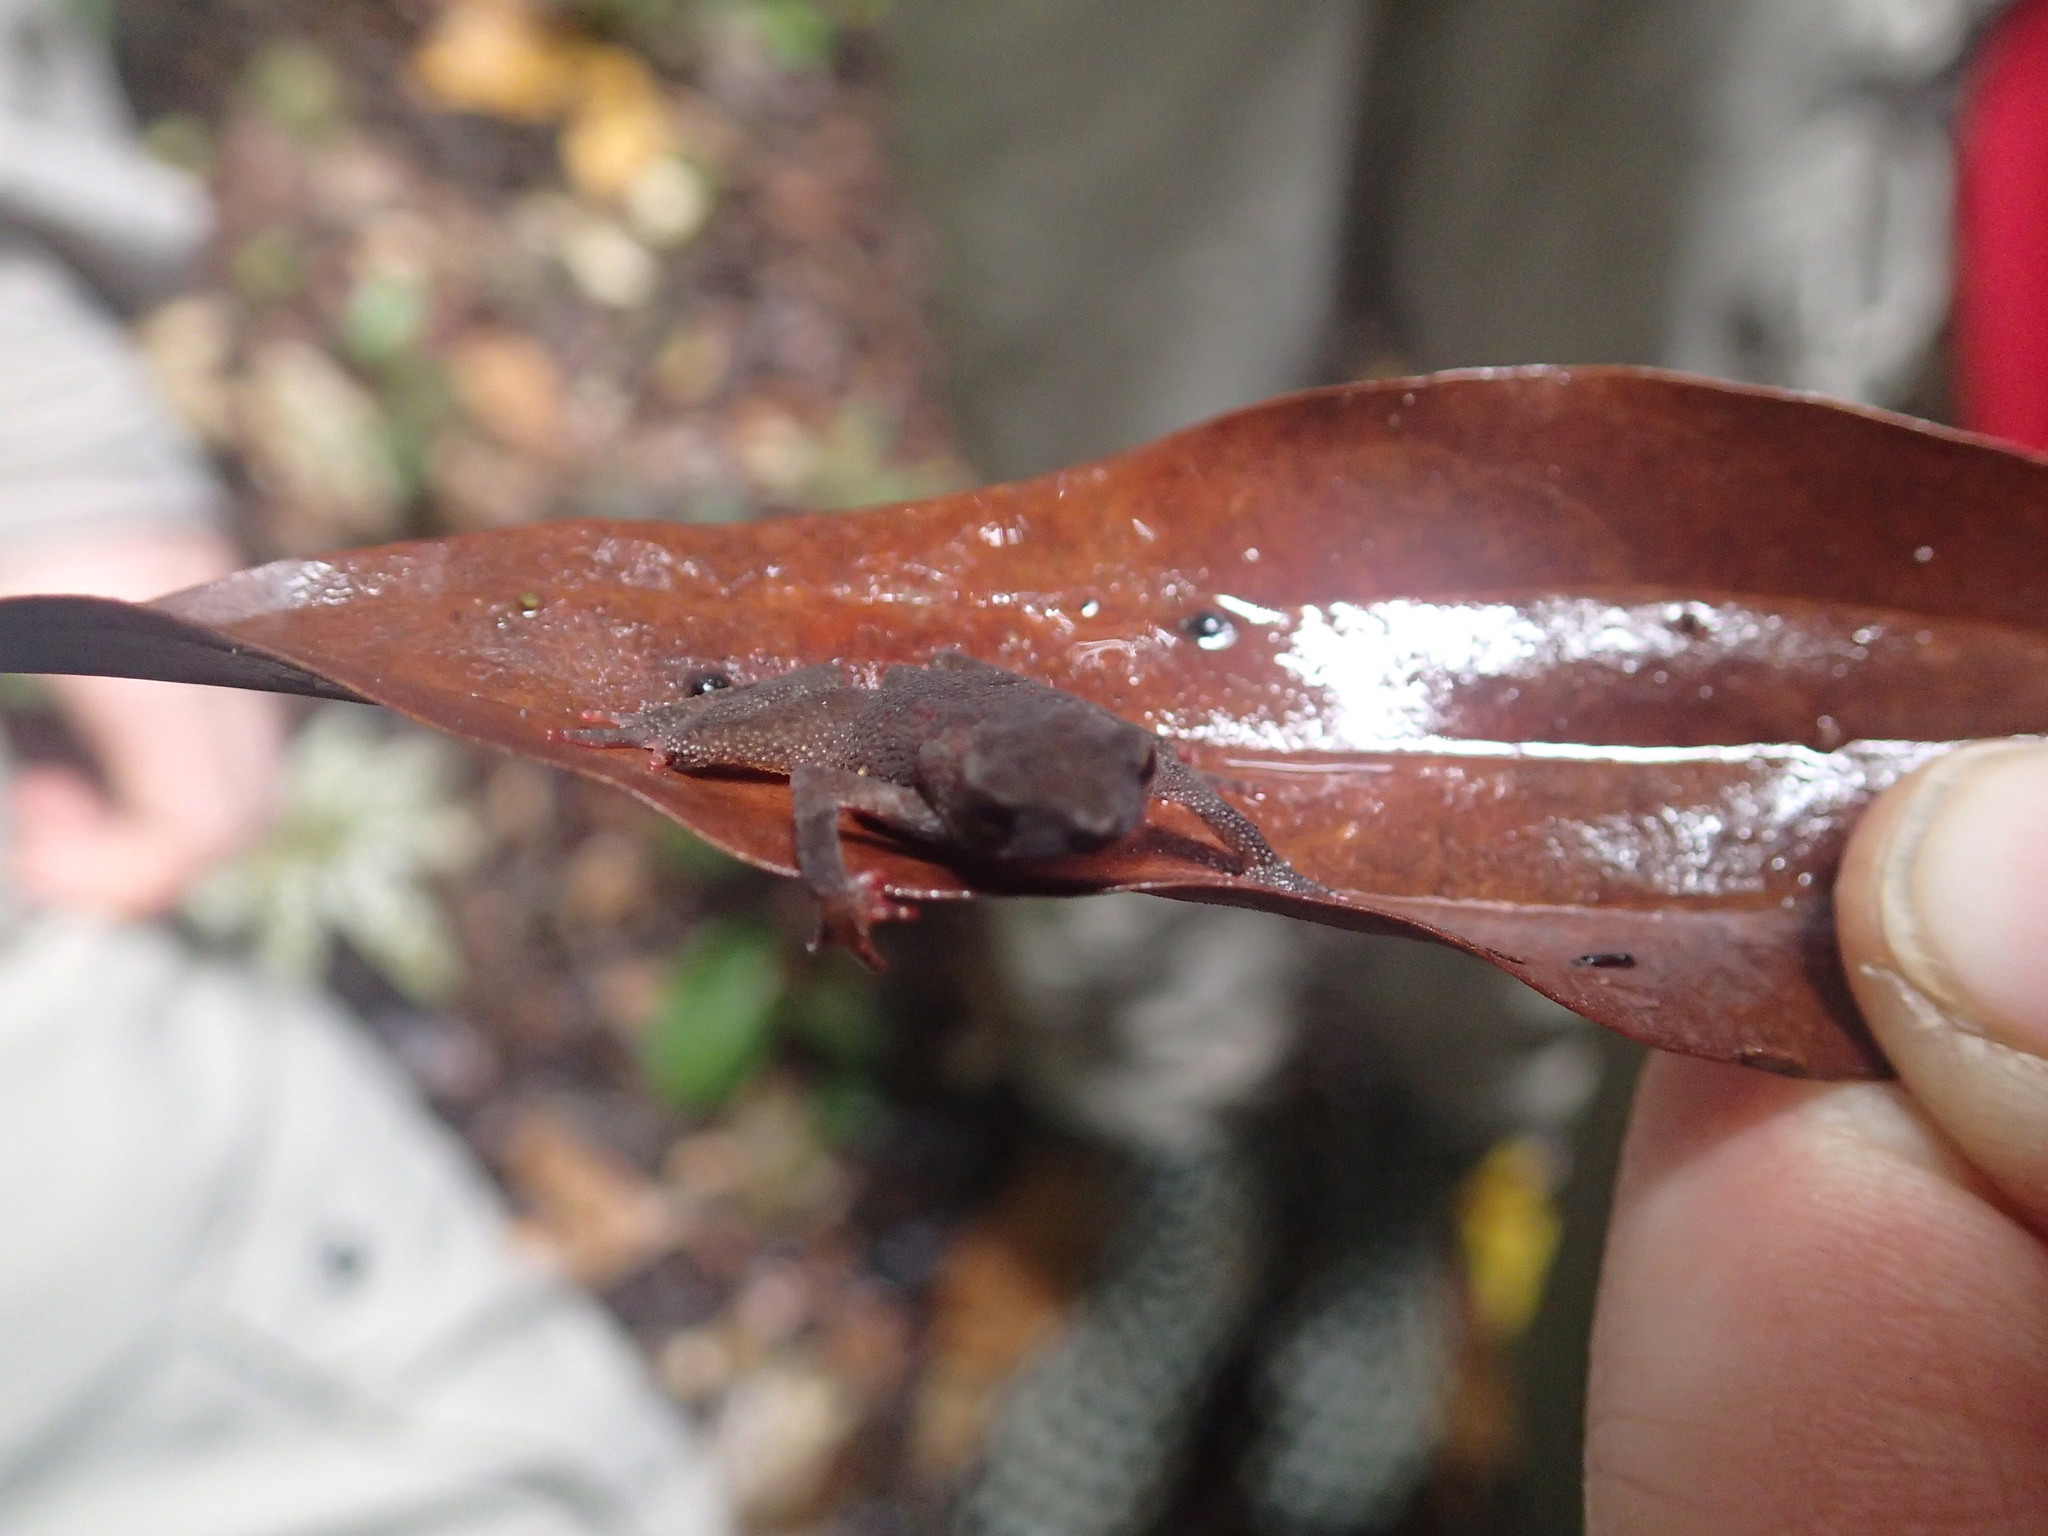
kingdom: Animalia
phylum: Chordata
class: Amphibia
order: Anura
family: Bufonidae
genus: Amazophrynella
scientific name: Amazophrynella siona
